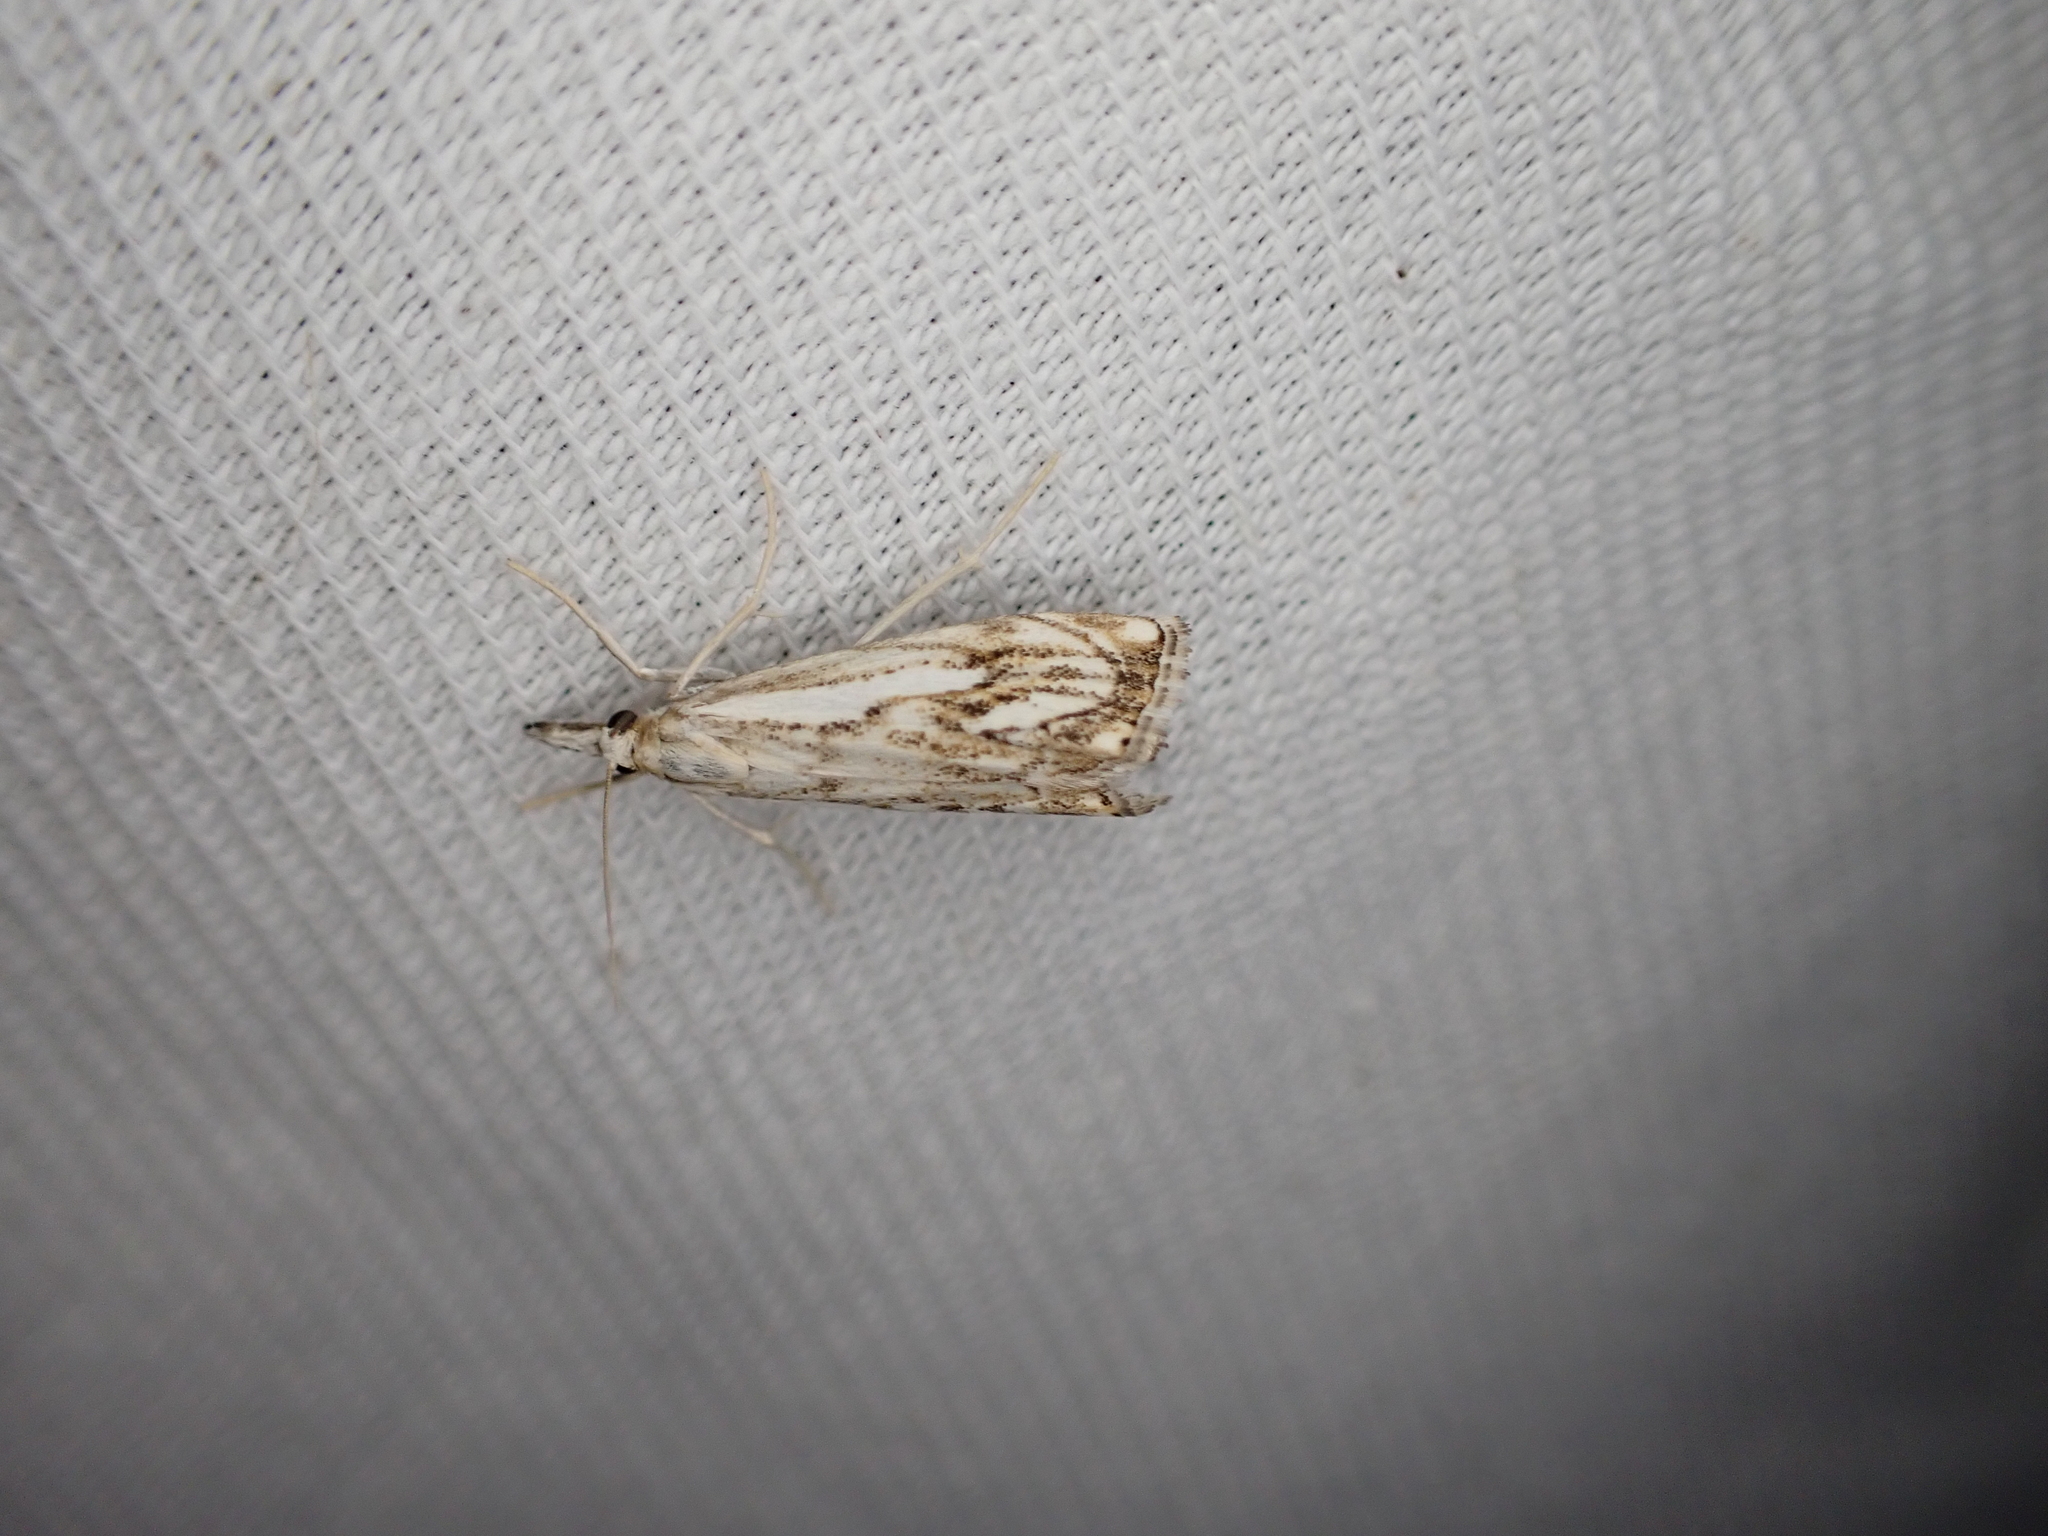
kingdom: Animalia
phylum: Arthropoda
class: Insecta
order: Lepidoptera
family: Crambidae
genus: Catoptria
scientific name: Catoptria falsella
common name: Chequered grass-veneer
